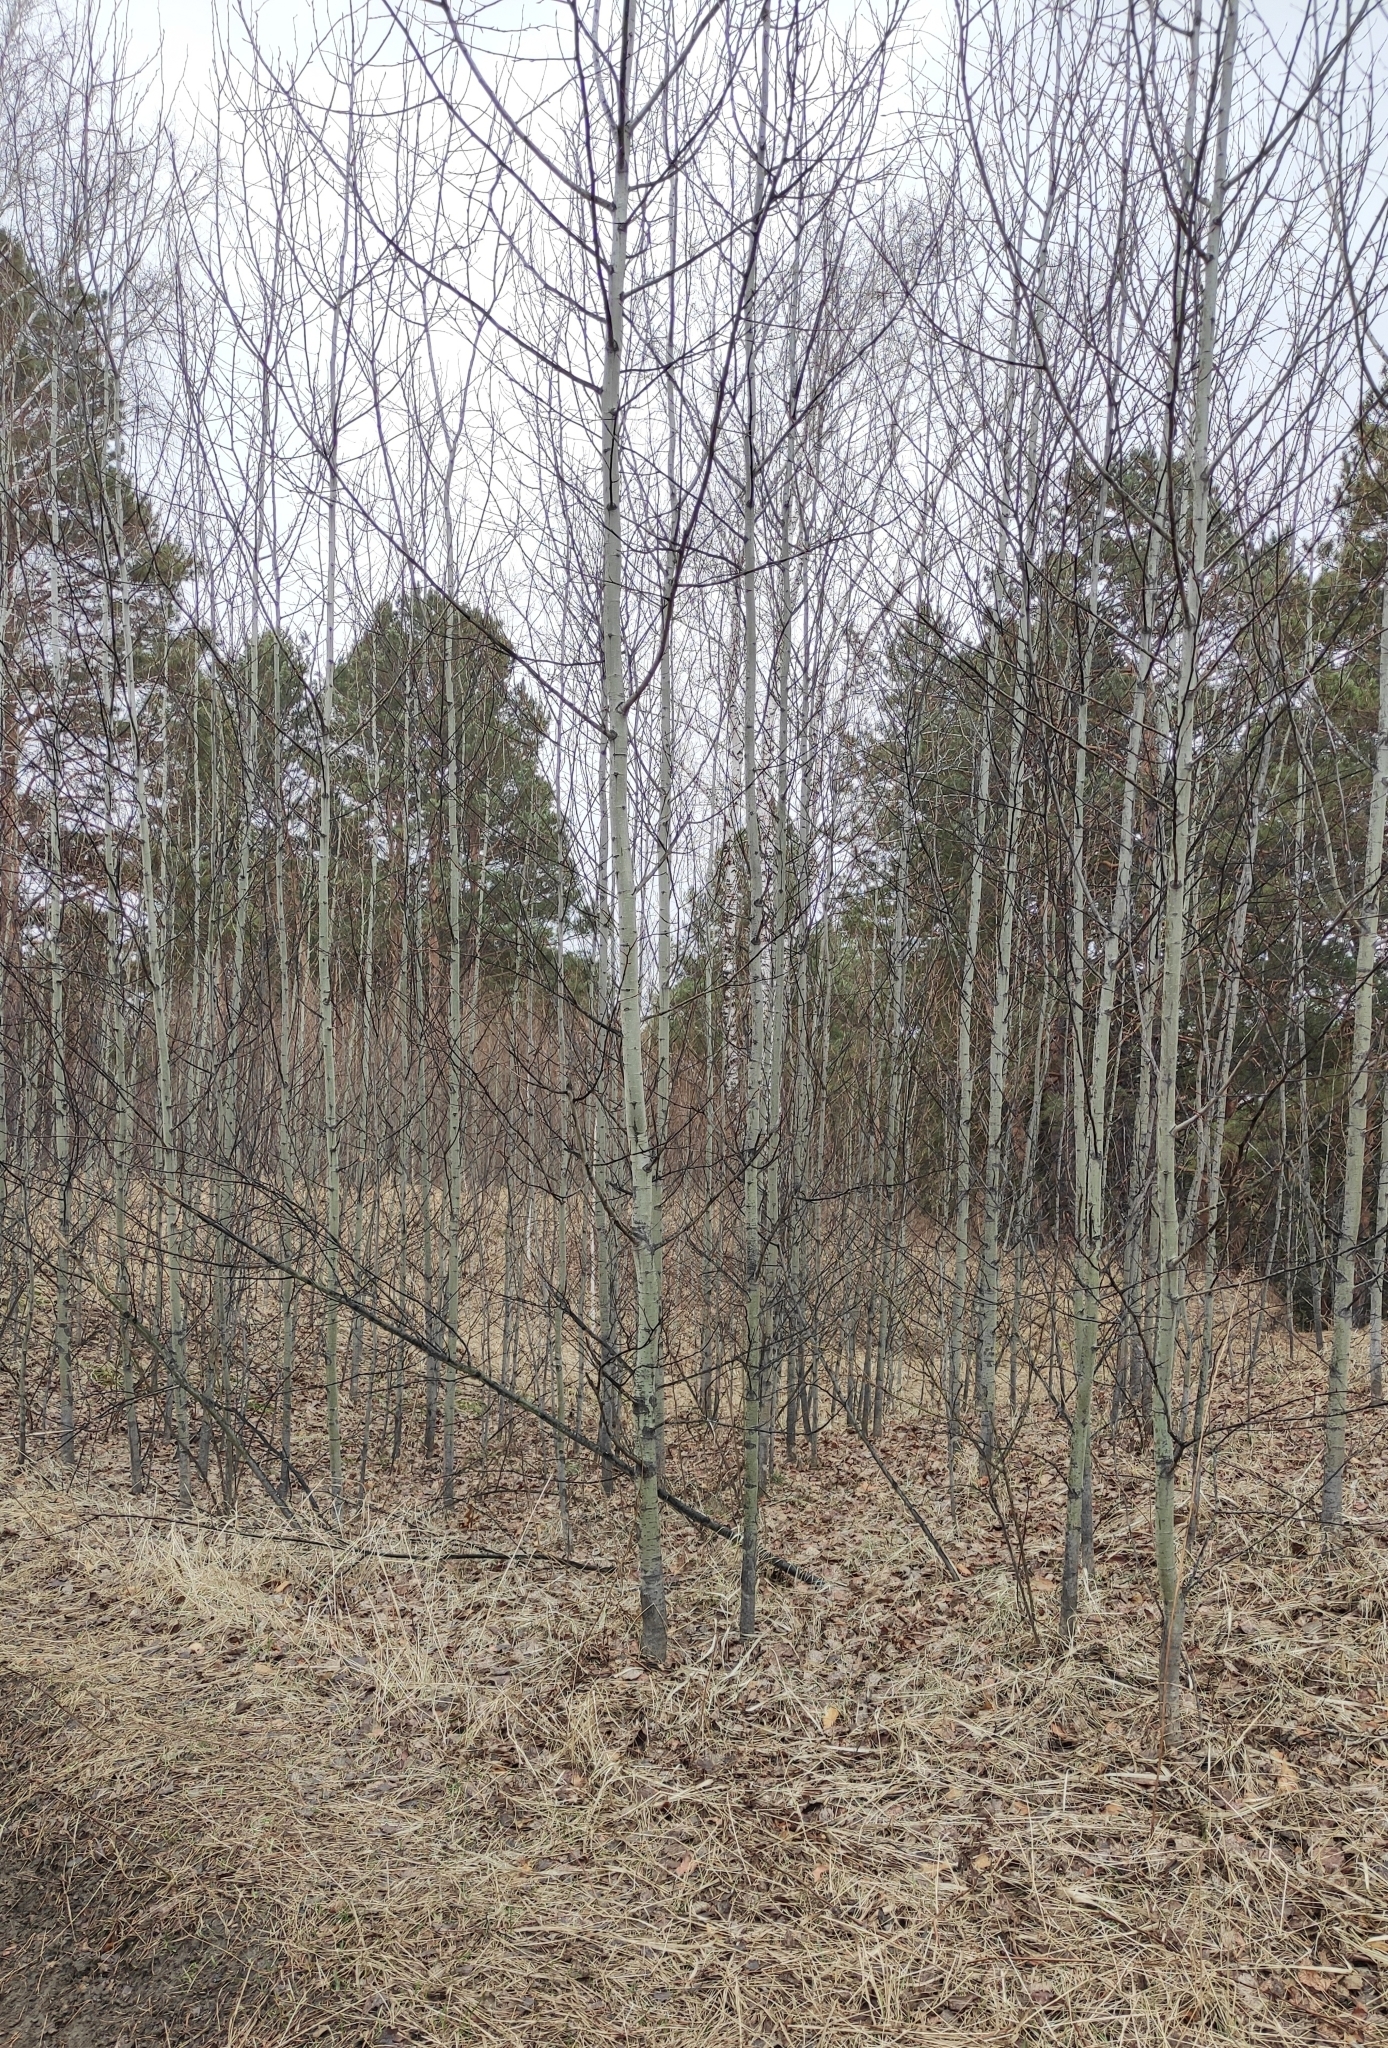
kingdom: Plantae
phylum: Tracheophyta
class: Magnoliopsida
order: Malpighiales
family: Salicaceae
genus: Populus
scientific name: Populus tremula
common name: European aspen
